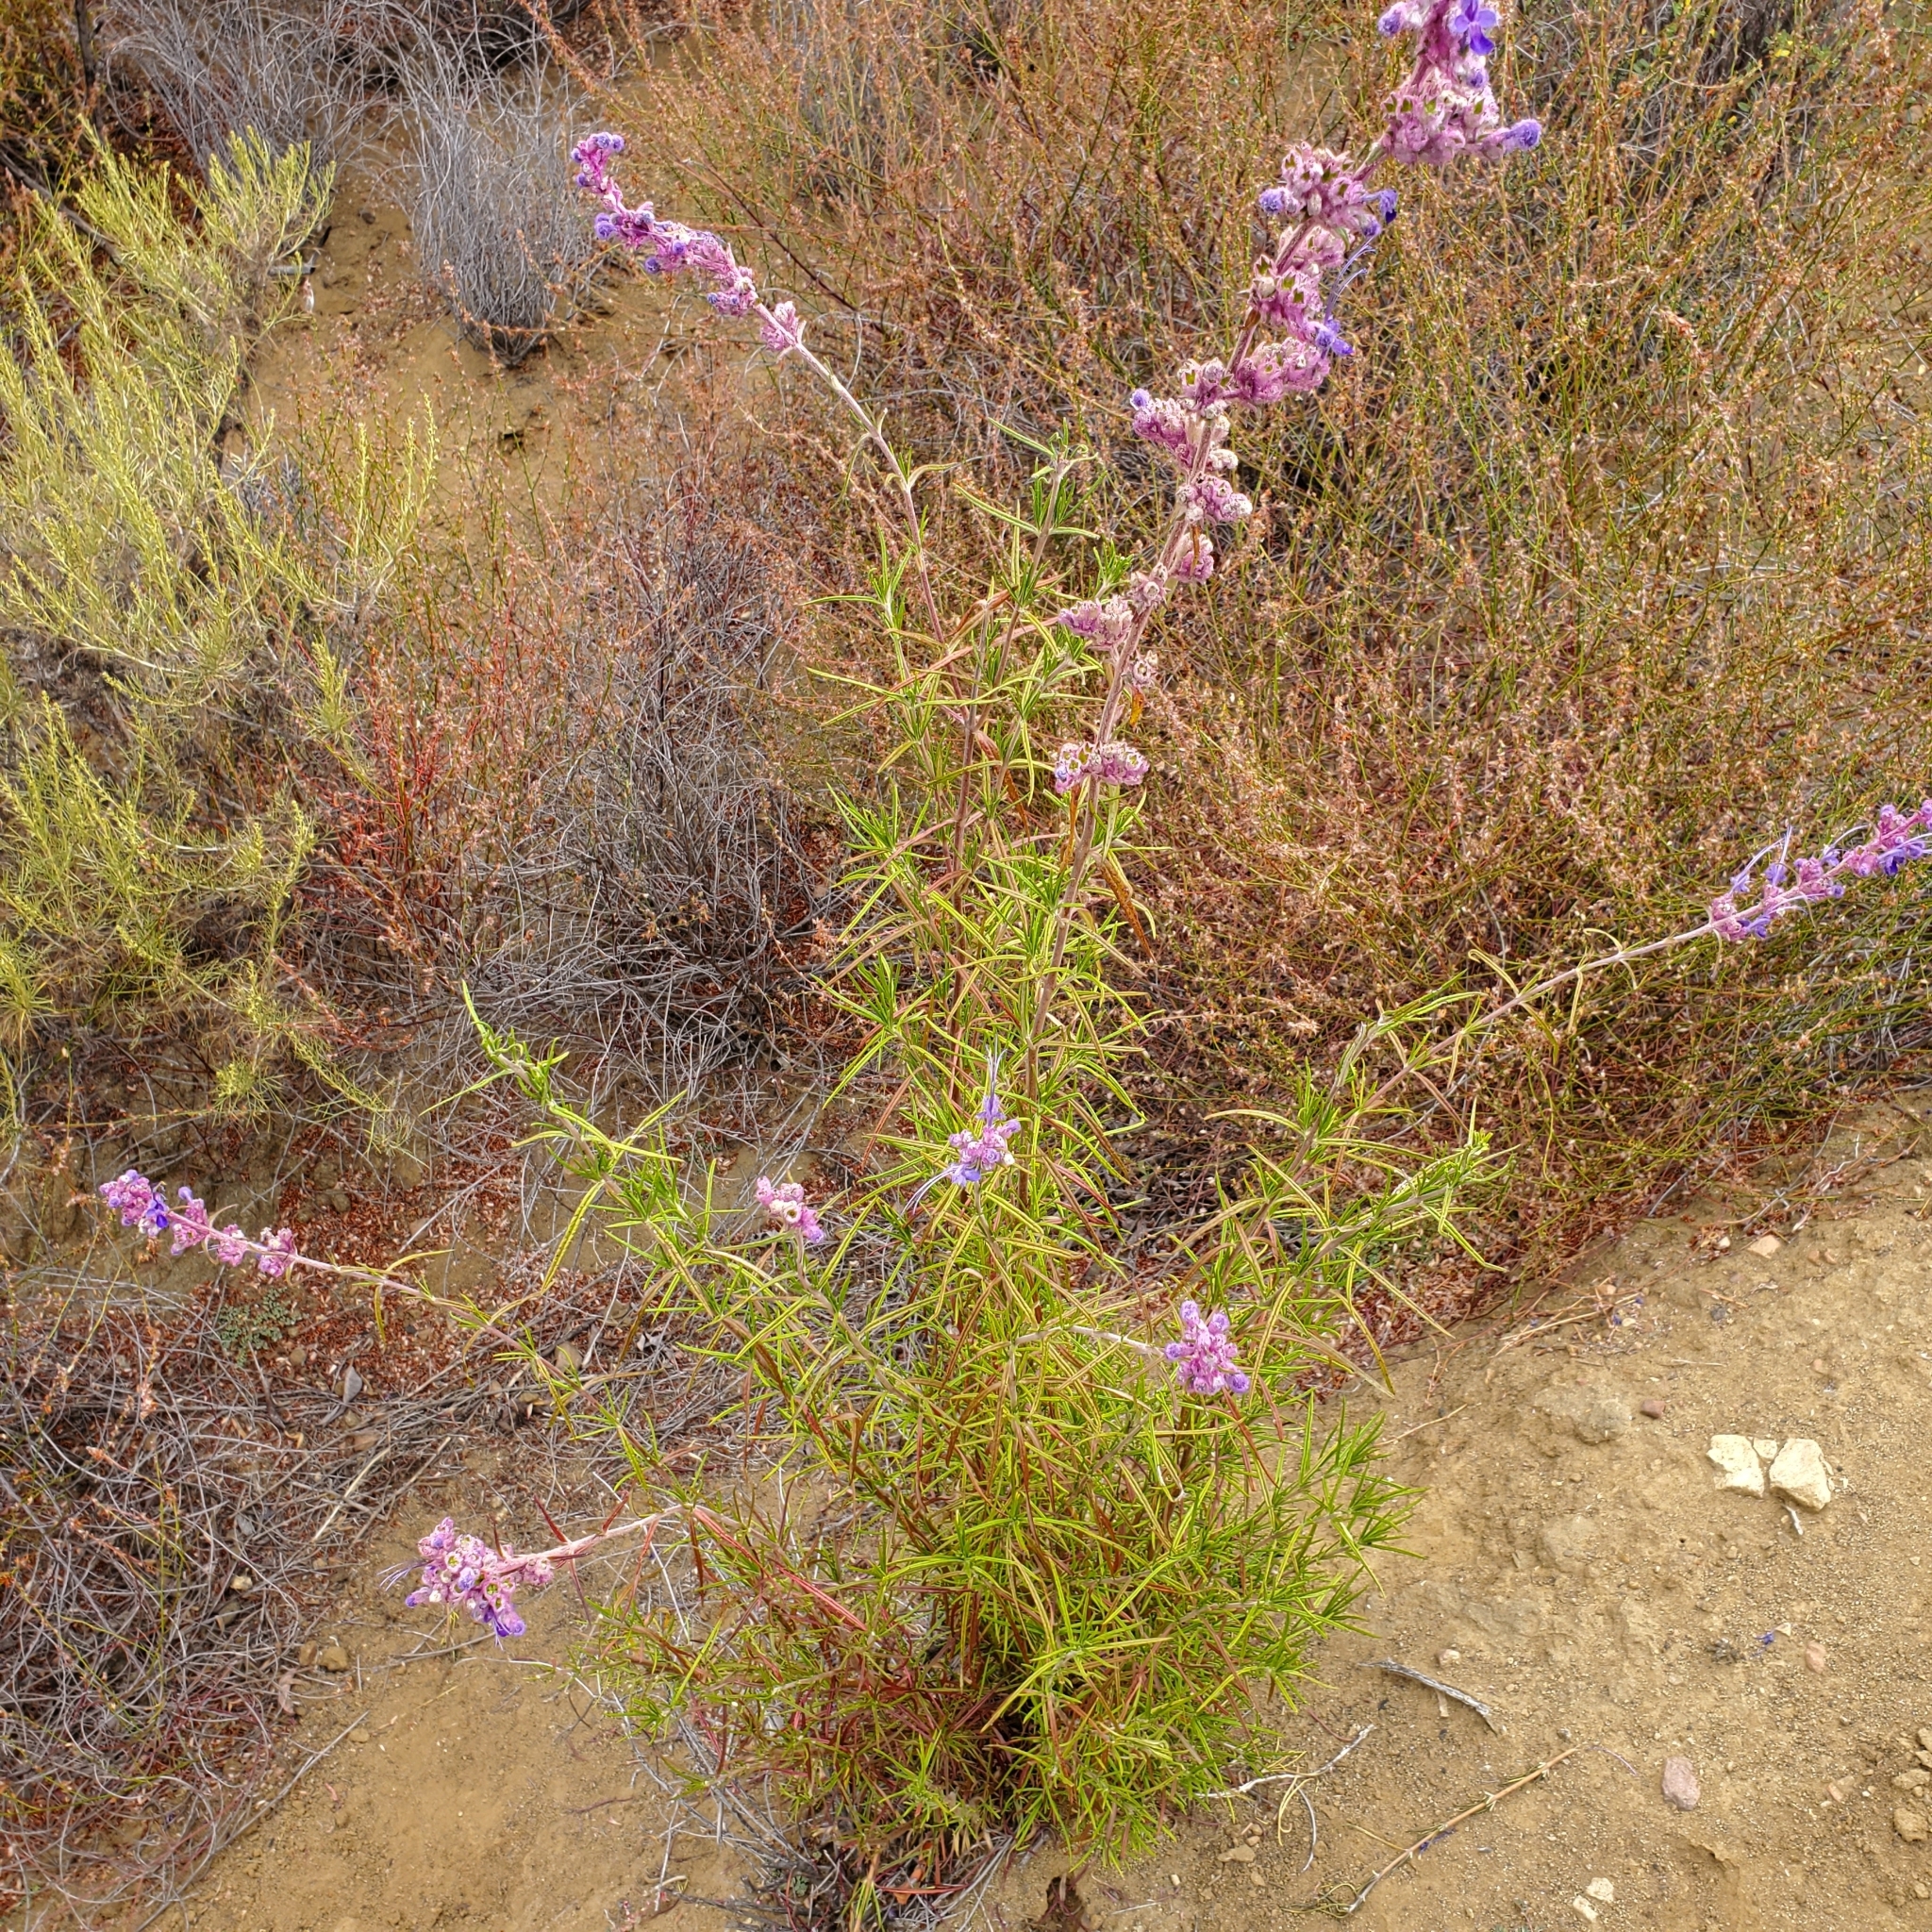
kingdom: Plantae
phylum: Tracheophyta
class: Magnoliopsida
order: Lamiales
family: Lamiaceae
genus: Trichostema
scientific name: Trichostema lanatum
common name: Woolly bluecurls
